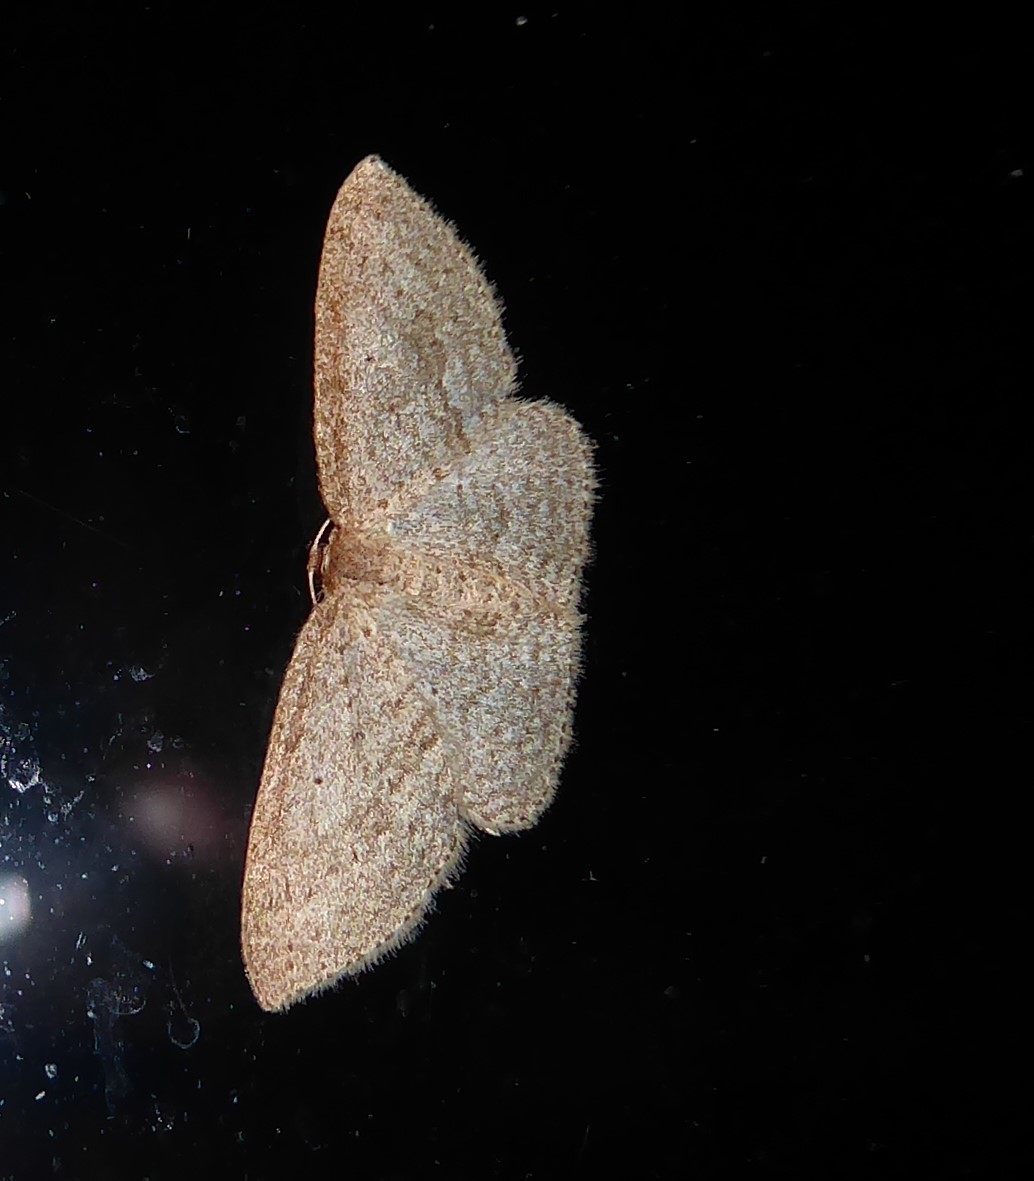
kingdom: Animalia
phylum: Arthropoda
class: Insecta
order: Lepidoptera
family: Geometridae
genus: Poecilasthena
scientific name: Poecilasthena schistaria
